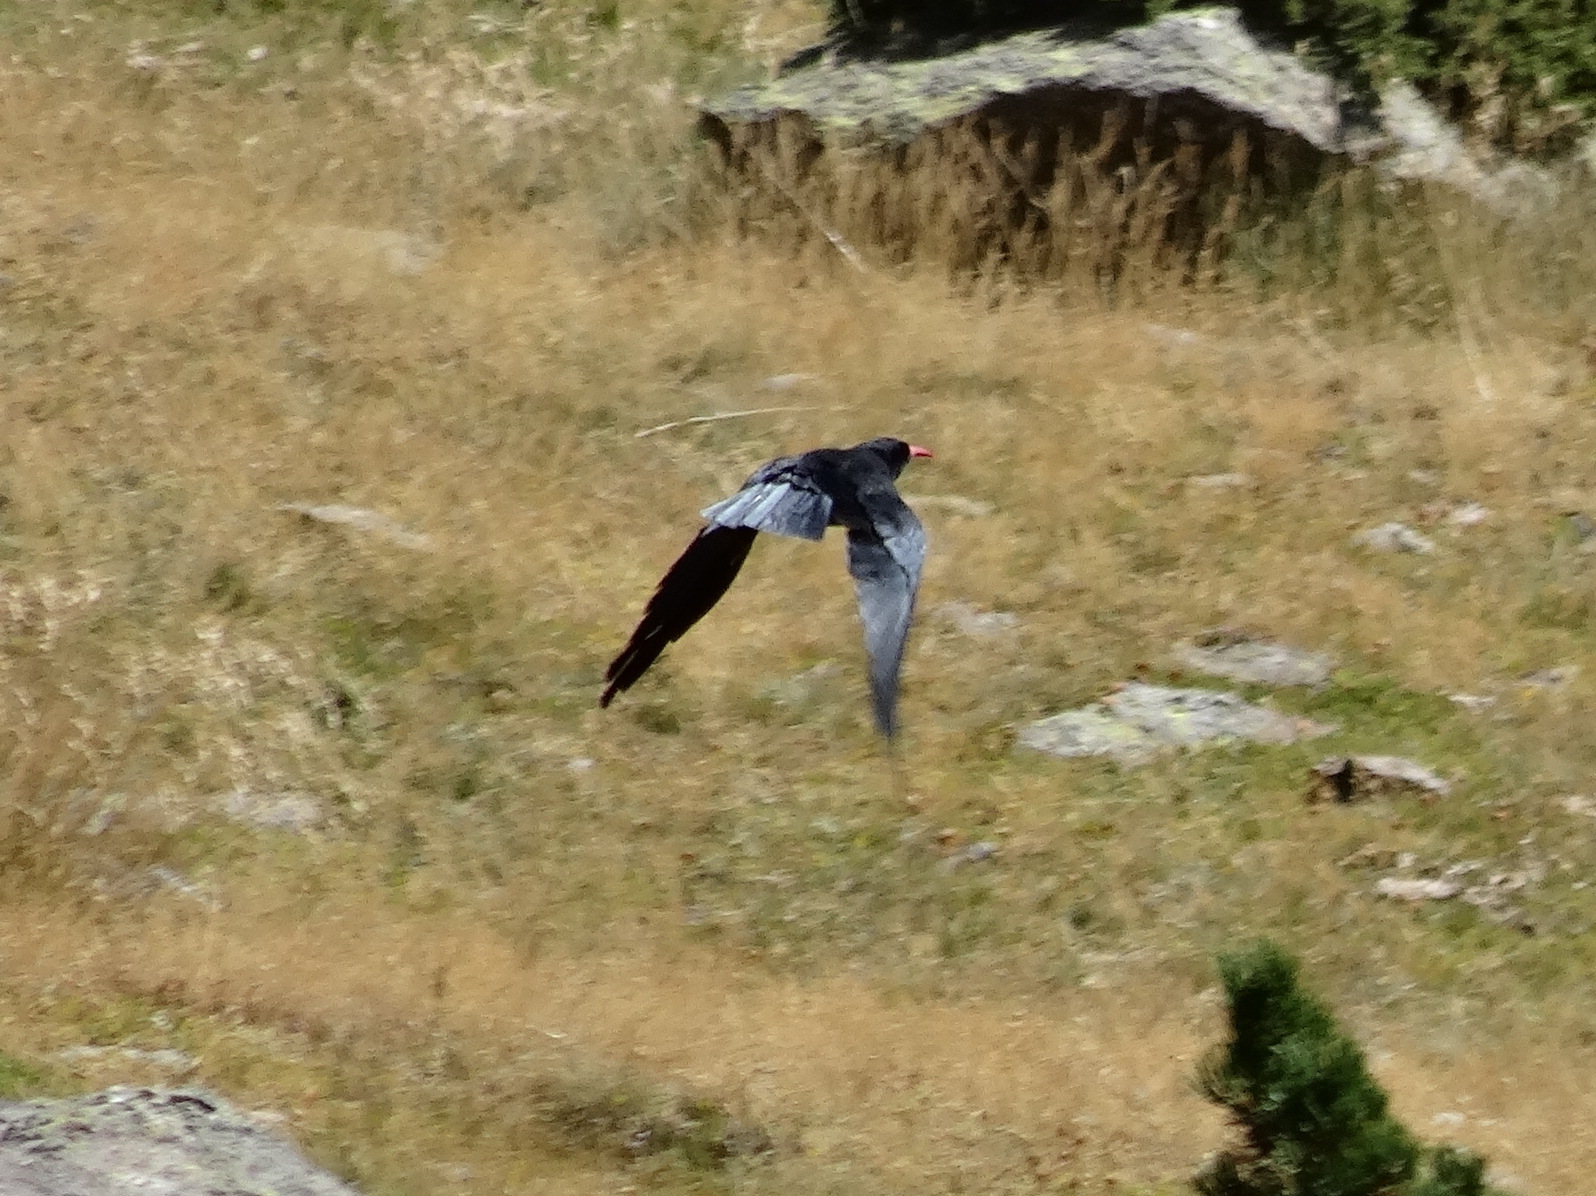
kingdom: Animalia
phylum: Chordata
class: Aves
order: Passeriformes
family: Corvidae
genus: Pyrrhocorax
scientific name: Pyrrhocorax pyrrhocorax
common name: Red-billed chough
